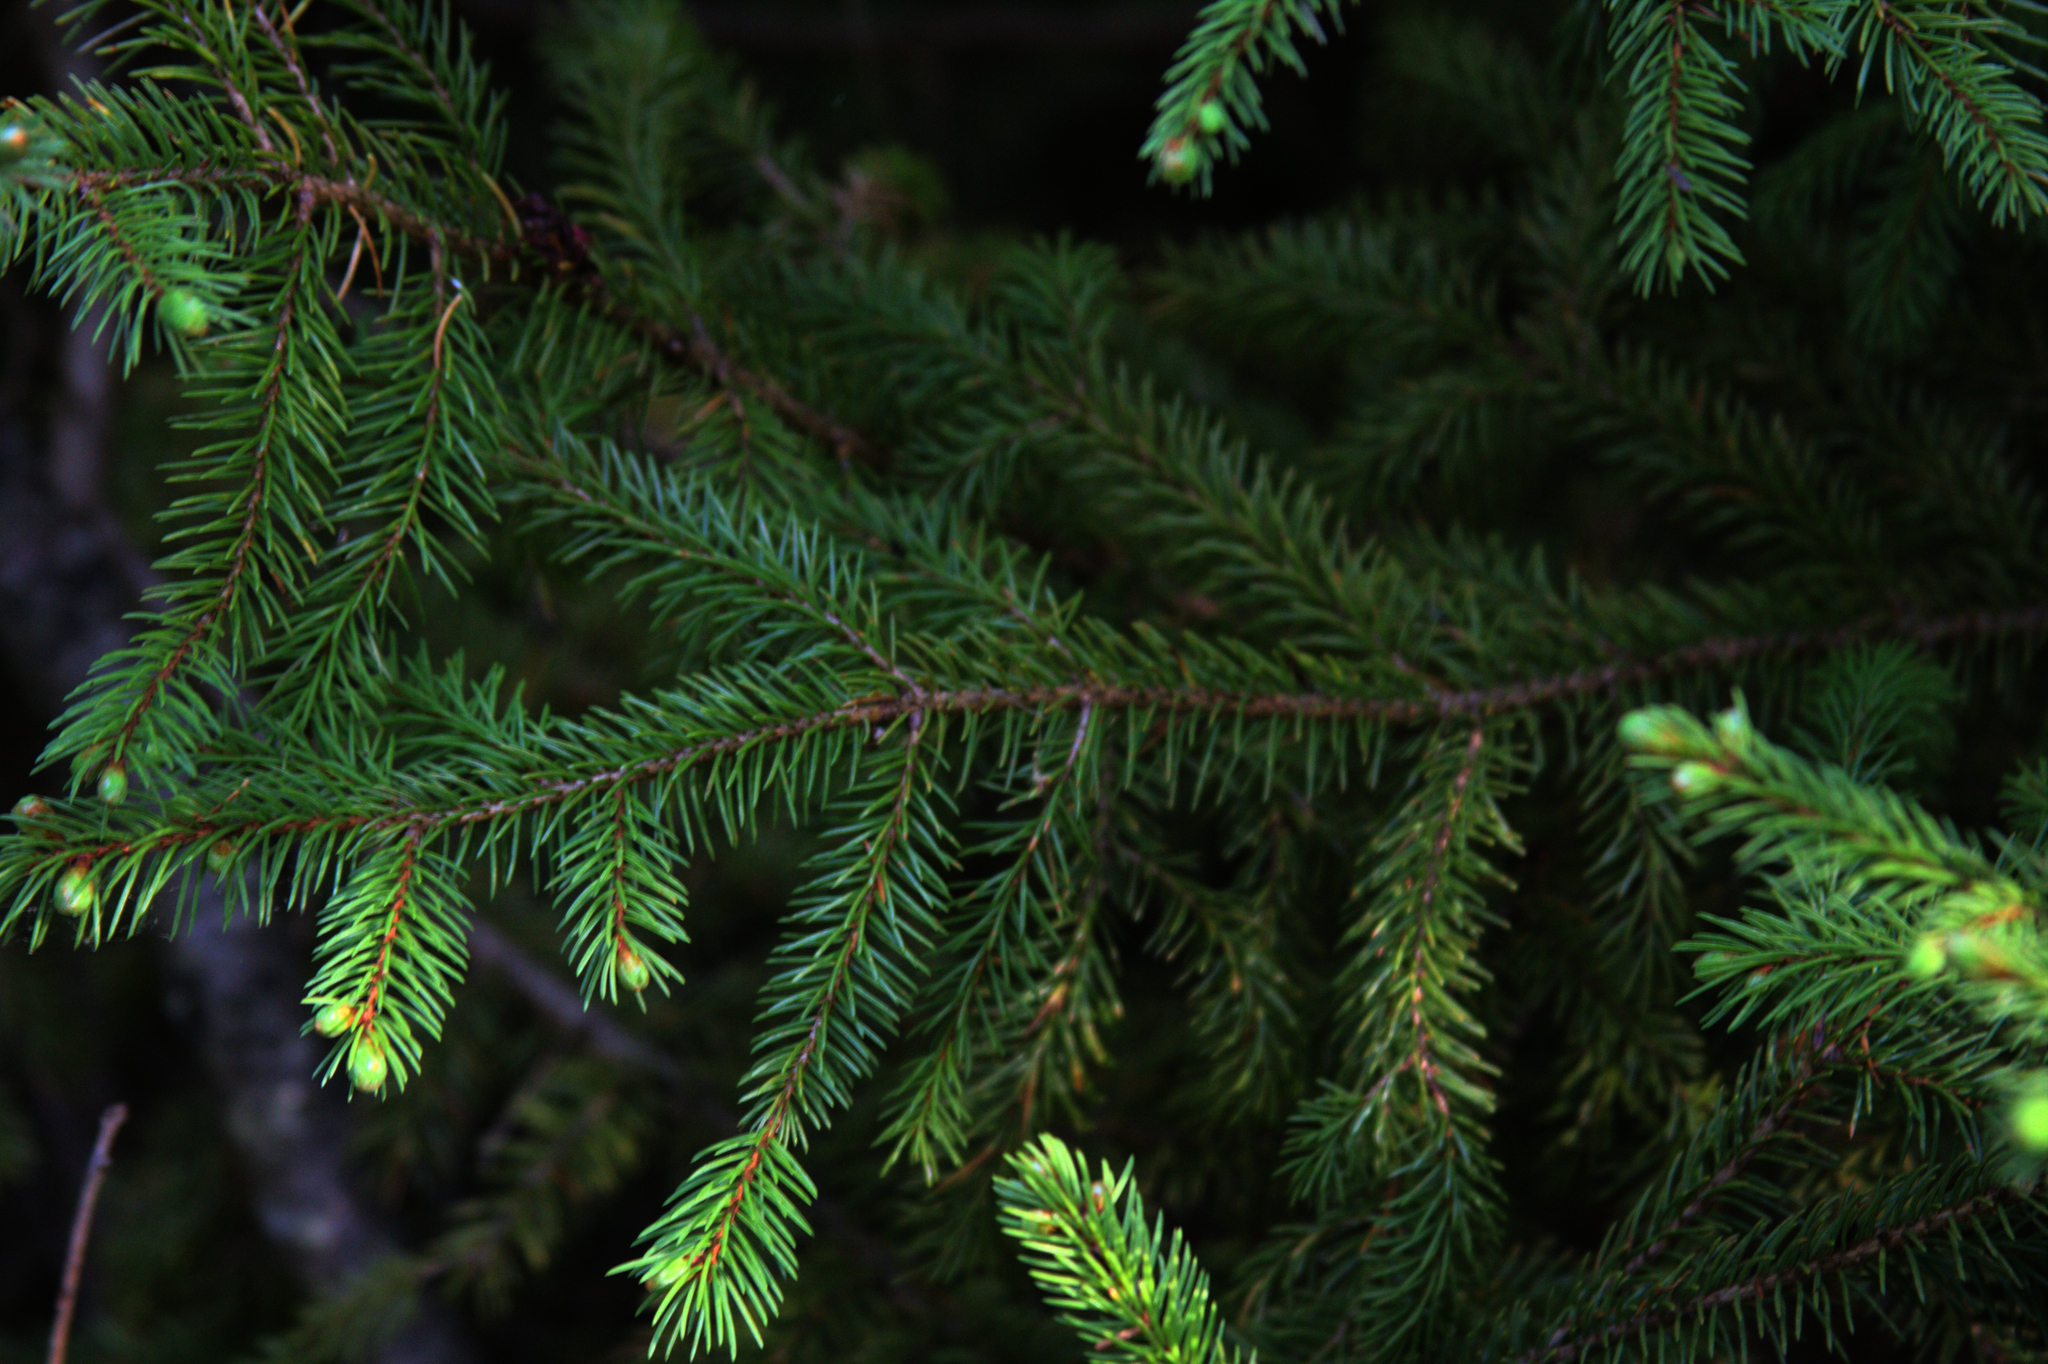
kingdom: Plantae
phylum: Tracheophyta
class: Pinopsida
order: Pinales
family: Pinaceae
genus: Picea
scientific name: Picea glauca
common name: White spruce
